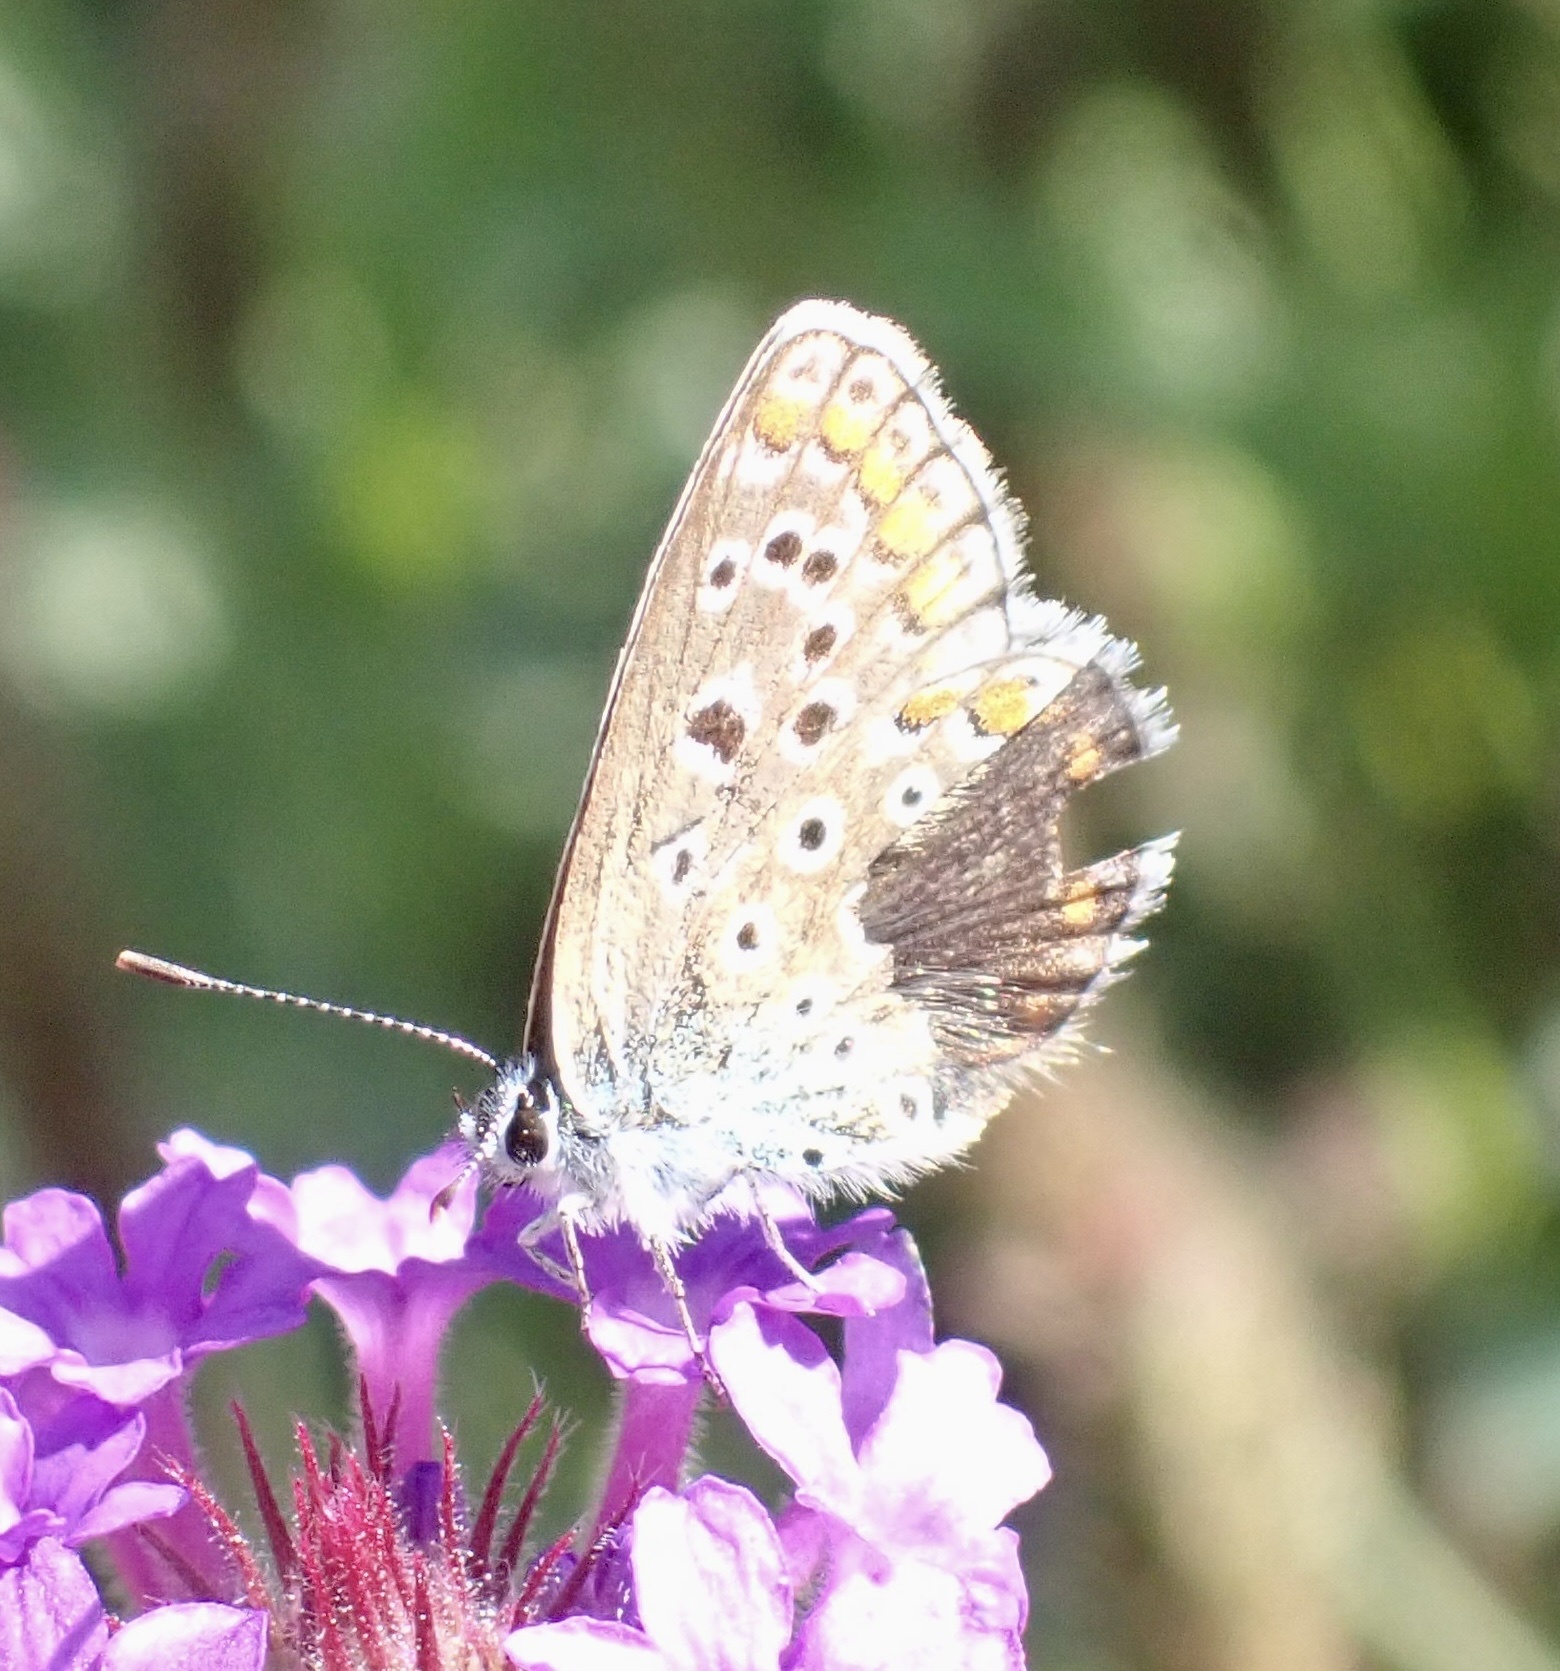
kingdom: Animalia
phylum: Arthropoda
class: Insecta
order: Lepidoptera
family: Lycaenidae
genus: Polyommatus
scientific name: Polyommatus icarus
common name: Common blue
